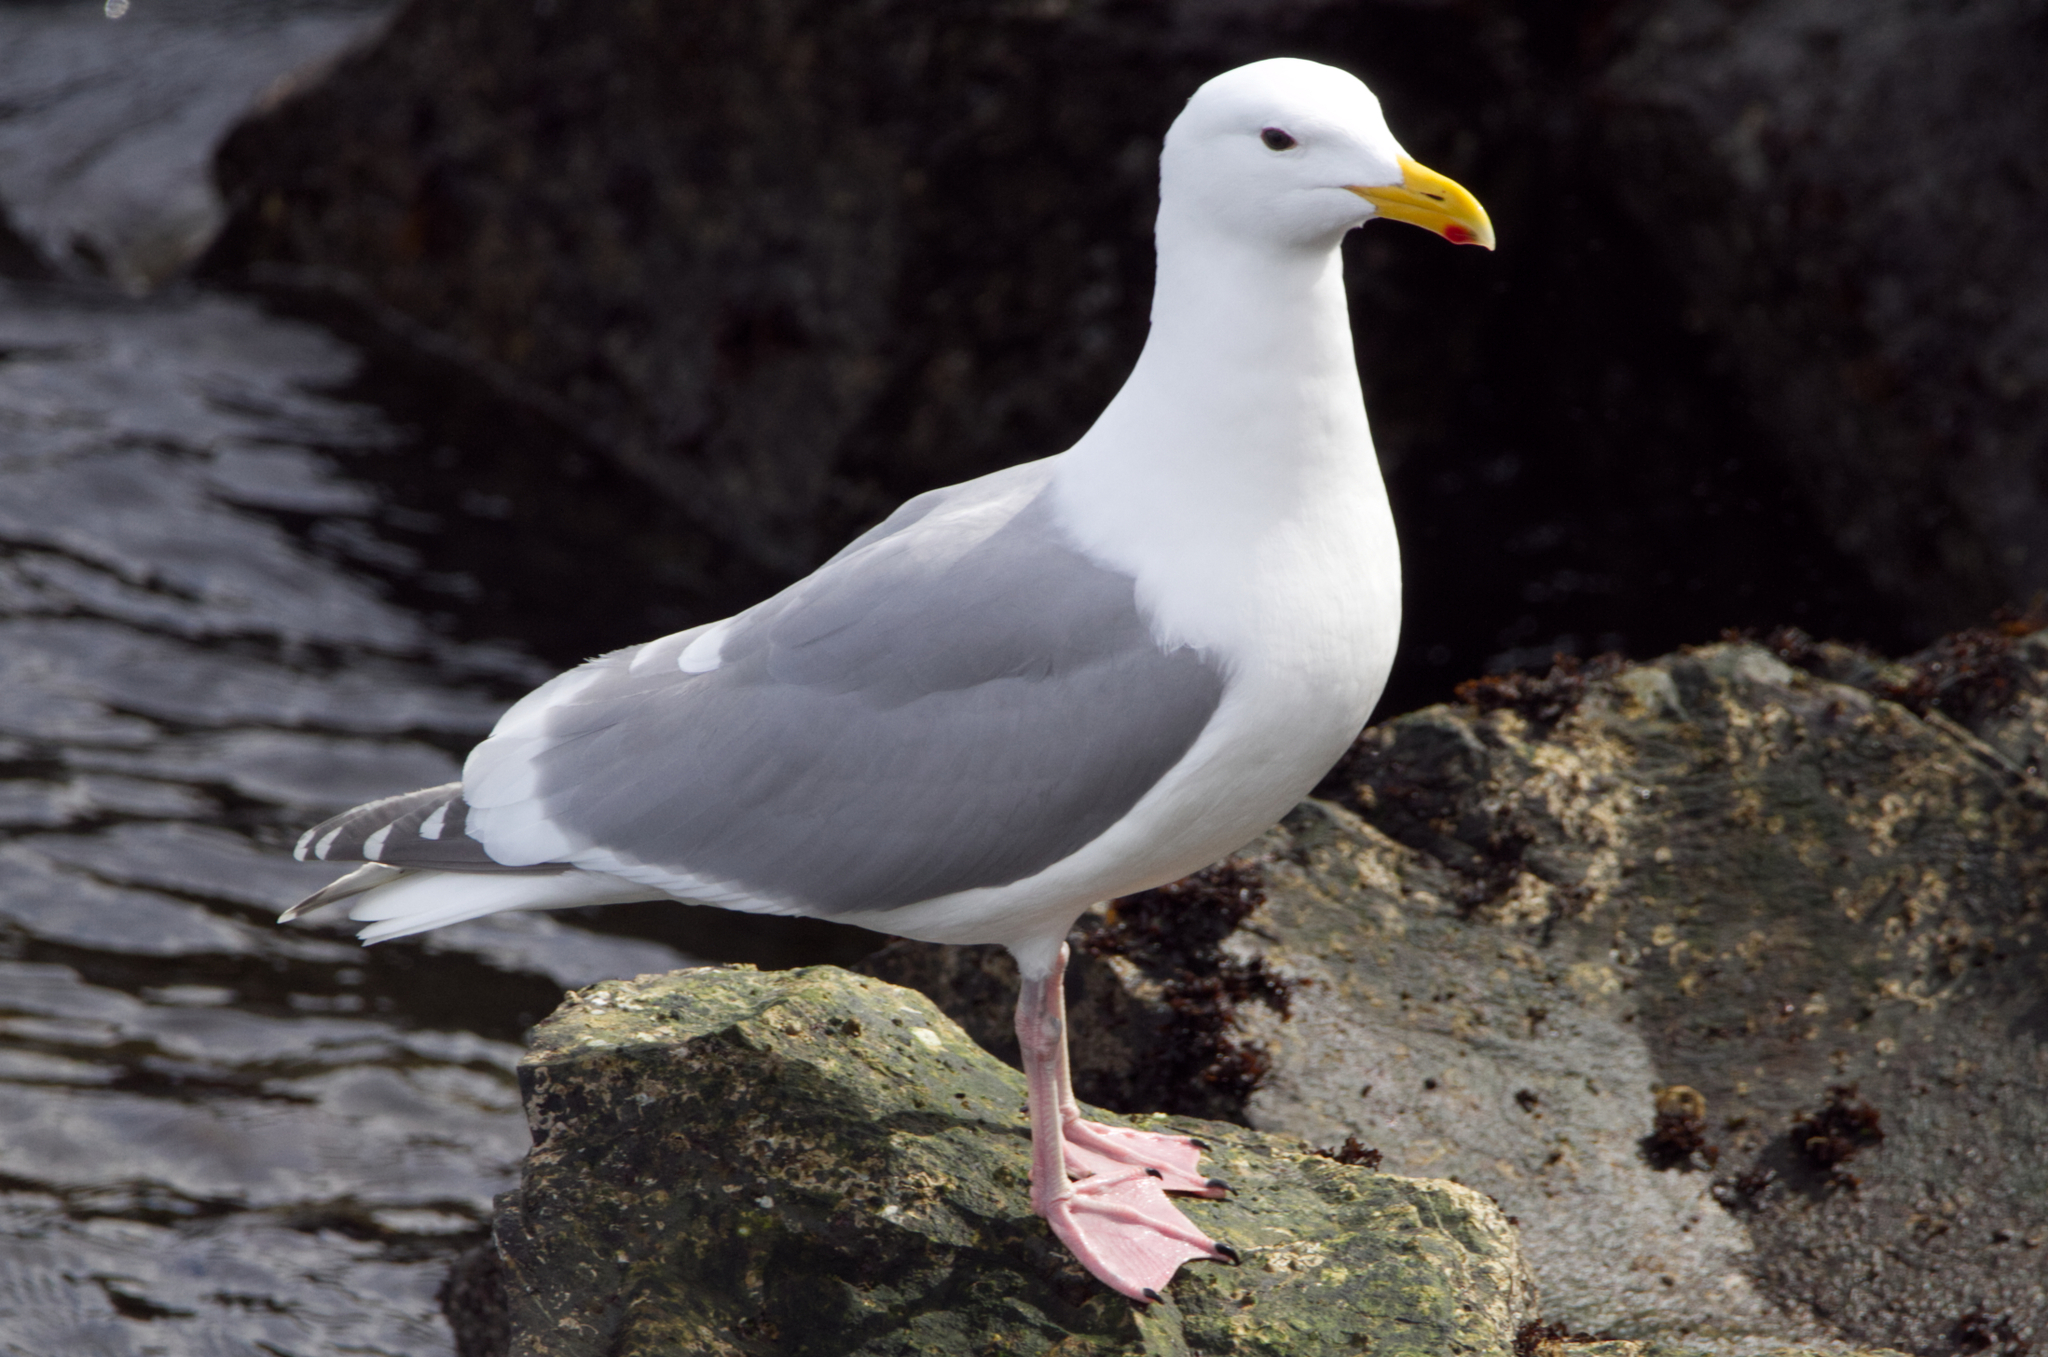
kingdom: Animalia
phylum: Chordata
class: Aves
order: Charadriiformes
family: Laridae
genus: Larus
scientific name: Larus glaucescens
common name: Glaucous-winged gull
